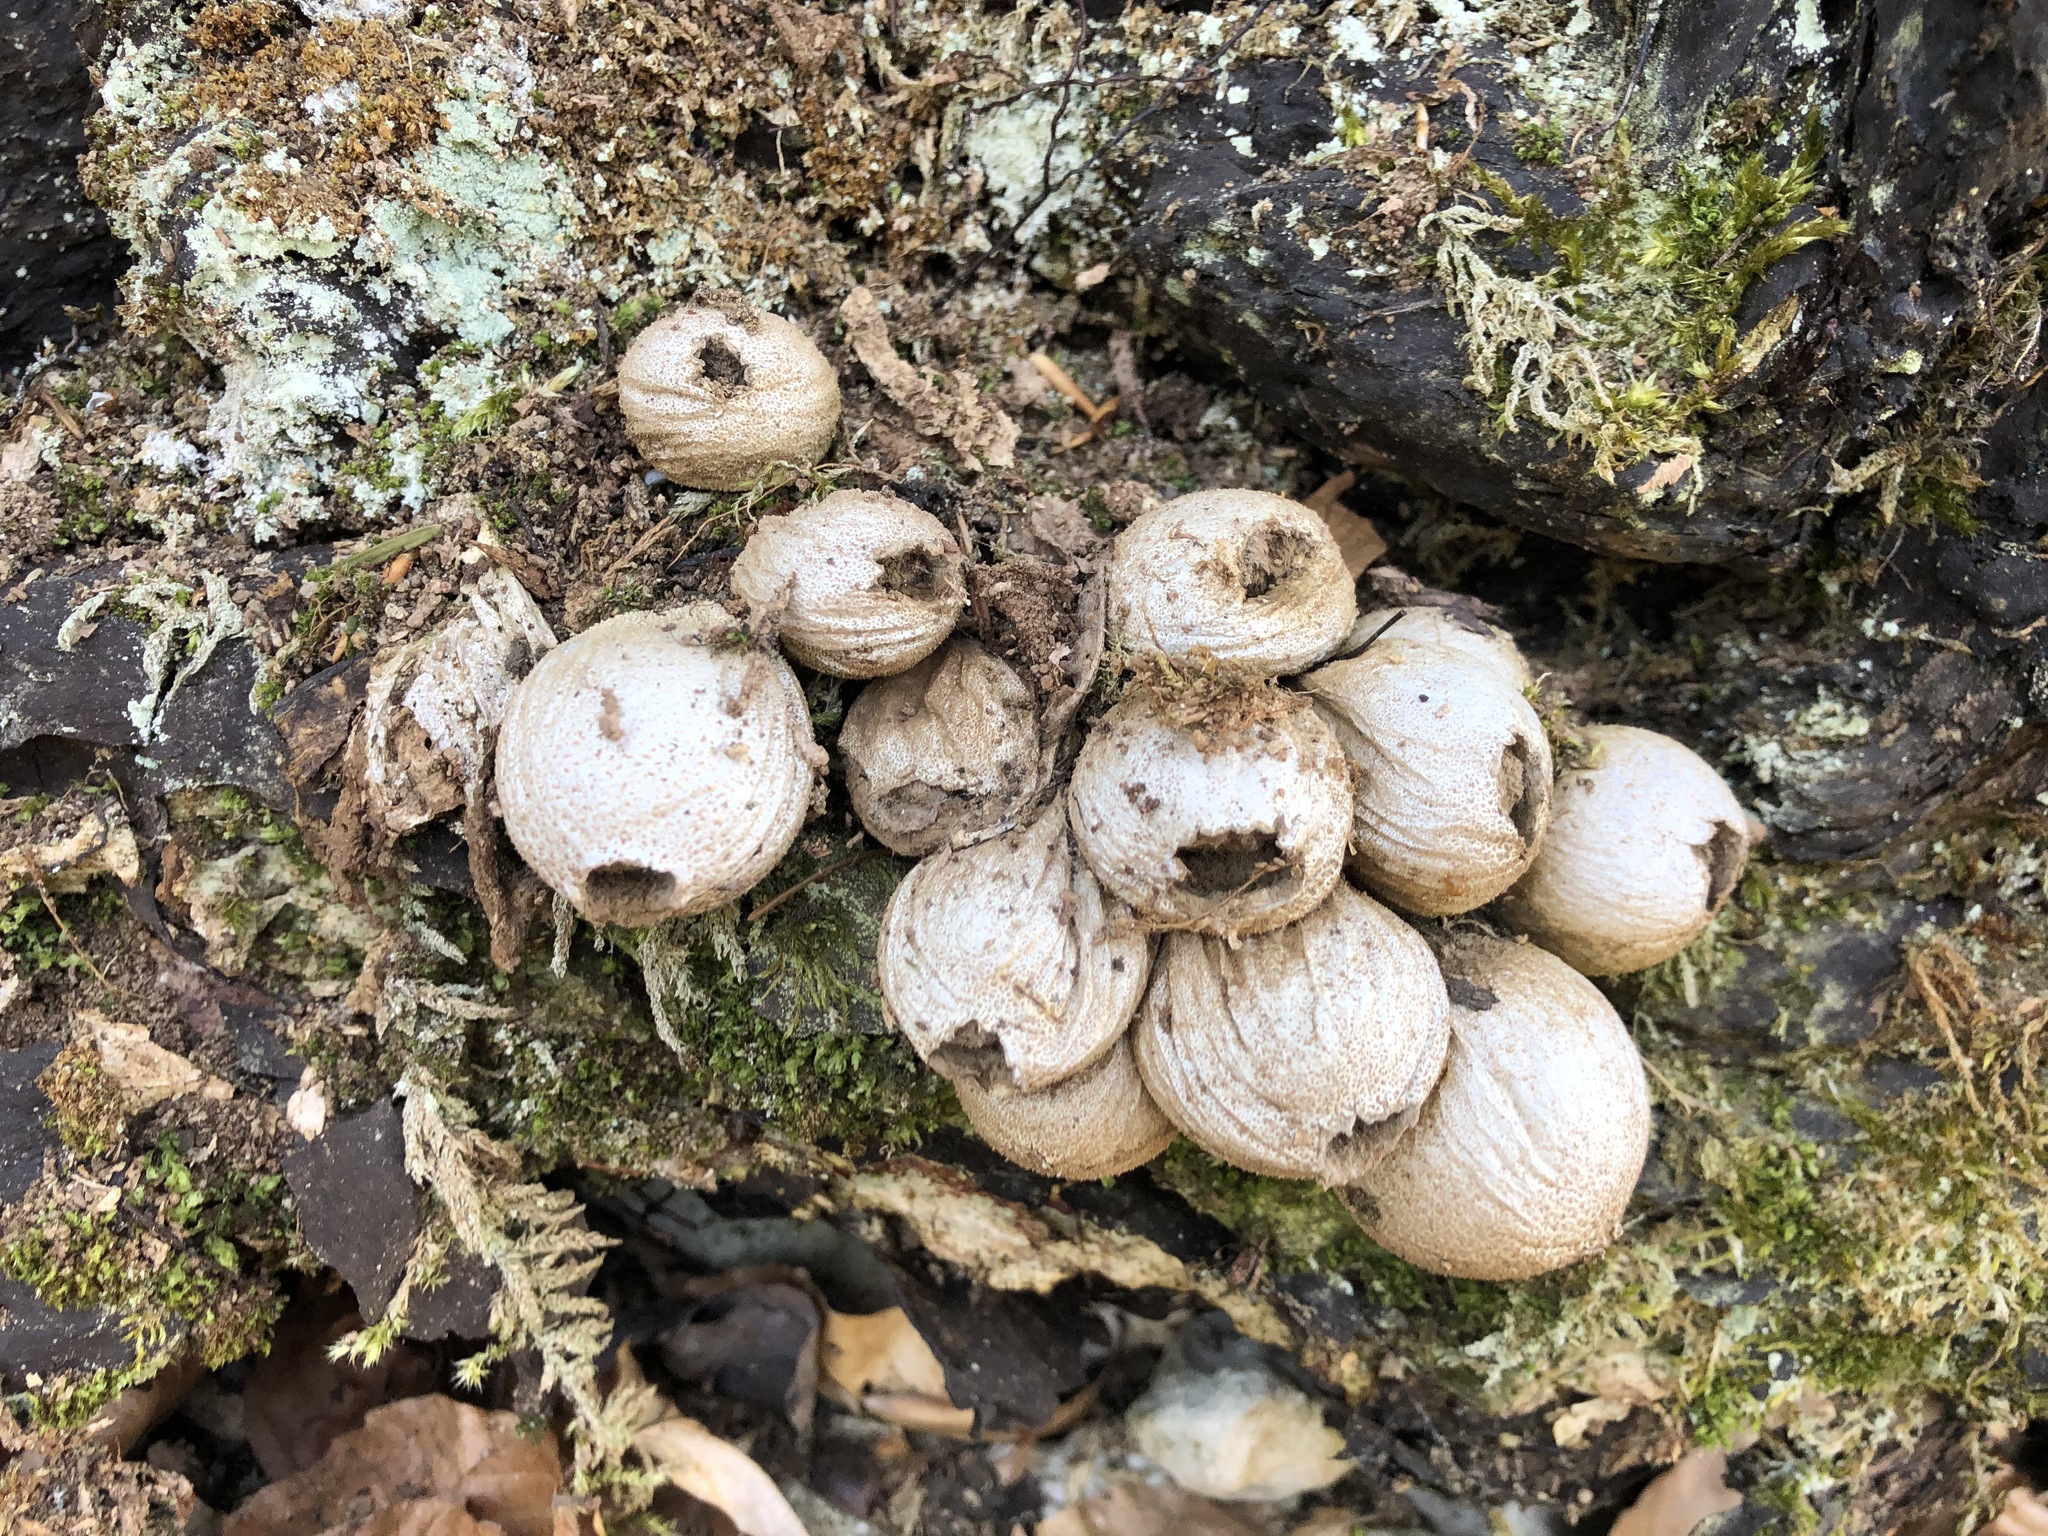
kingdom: Fungi
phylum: Basidiomycota
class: Agaricomycetes
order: Agaricales
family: Lycoperdaceae
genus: Apioperdon
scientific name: Apioperdon pyriforme
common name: Pear-shaped puffball
